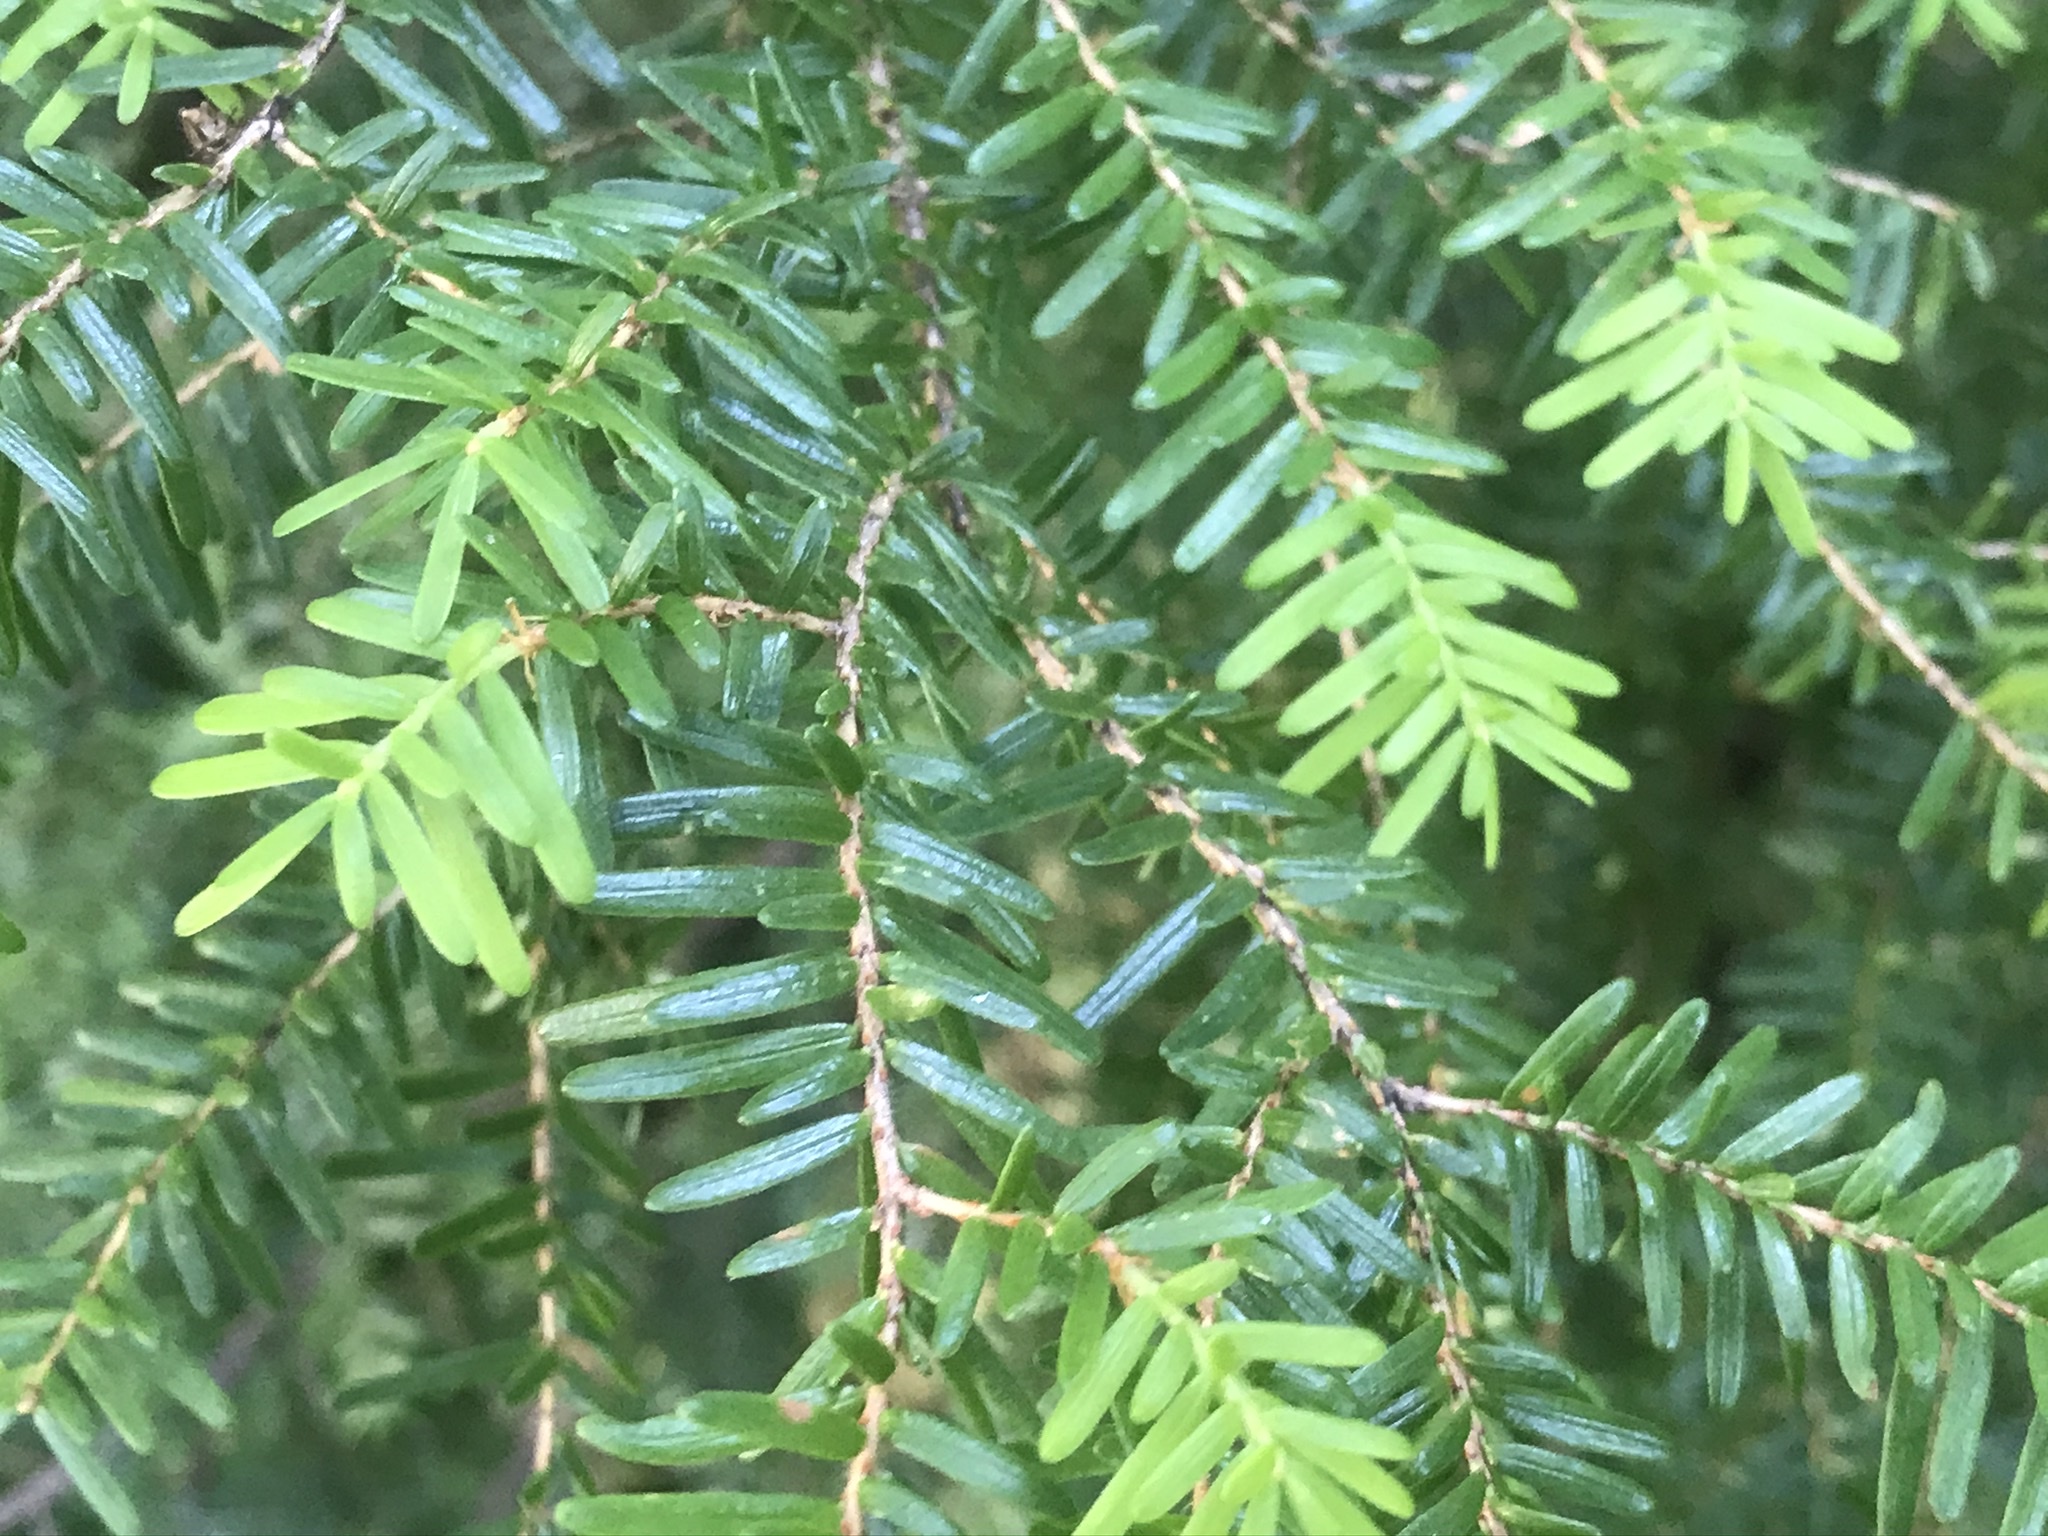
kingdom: Plantae
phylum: Tracheophyta
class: Pinopsida
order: Pinales
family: Pinaceae
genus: Tsuga
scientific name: Tsuga heterophylla
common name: Western hemlock
